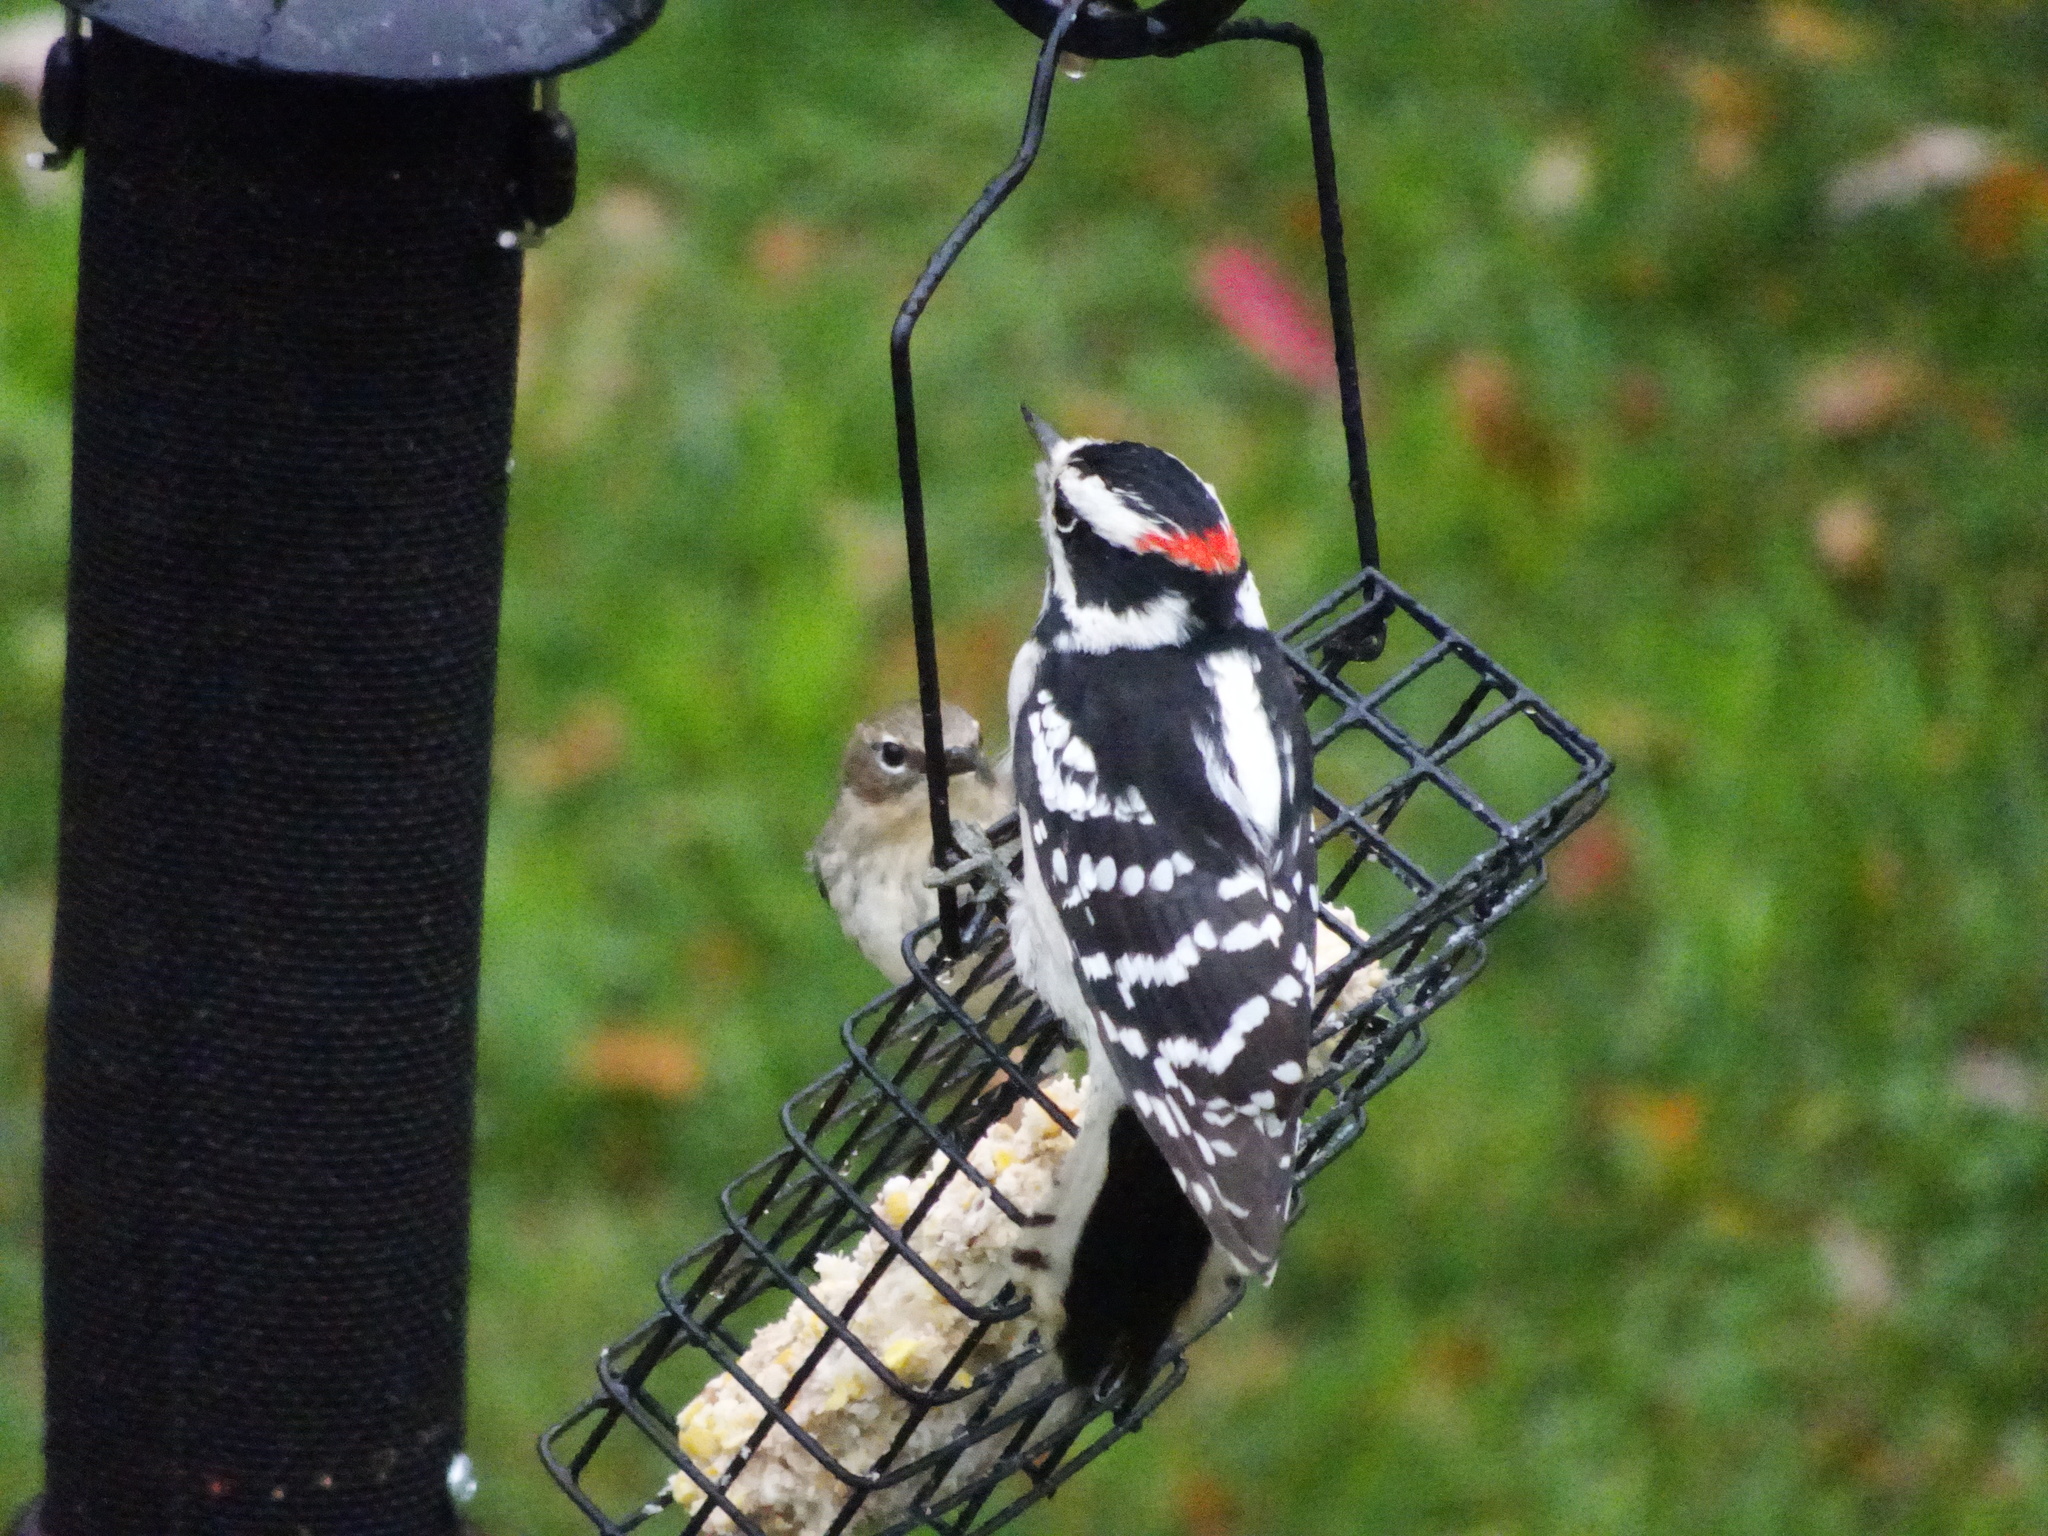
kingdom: Animalia
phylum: Chordata
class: Aves
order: Piciformes
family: Picidae
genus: Dryobates
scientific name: Dryobates pubescens
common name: Downy woodpecker
